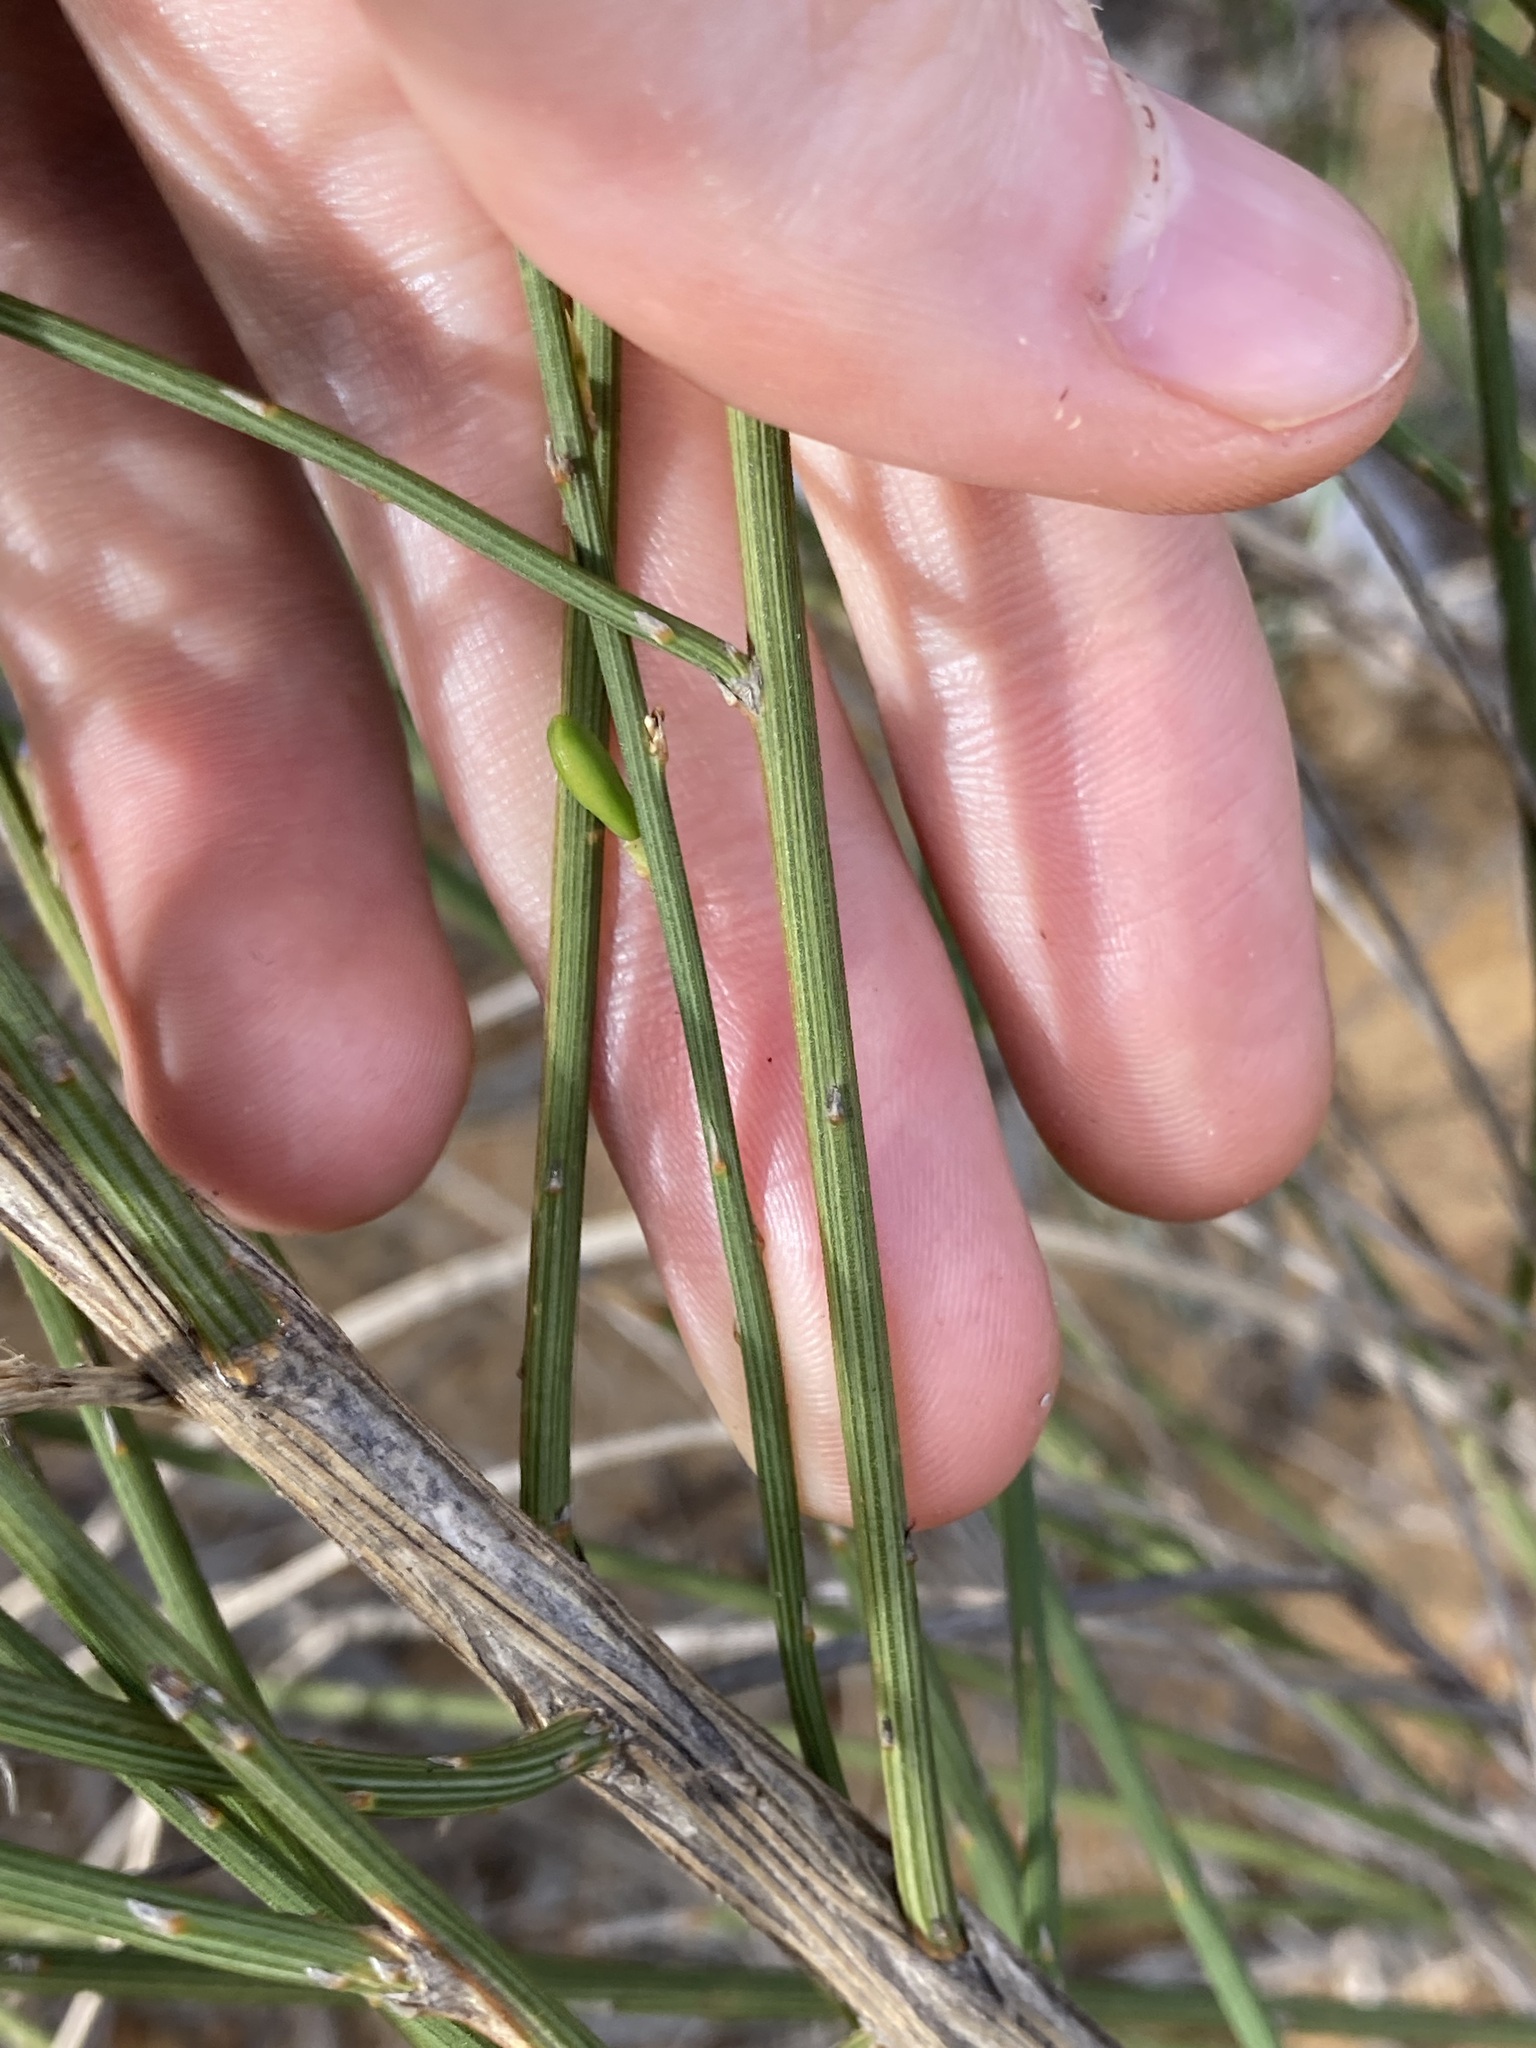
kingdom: Plantae
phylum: Tracheophyta
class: Magnoliopsida
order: Fabales
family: Polygalaceae
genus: Comesperma
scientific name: Comesperma scoparium
